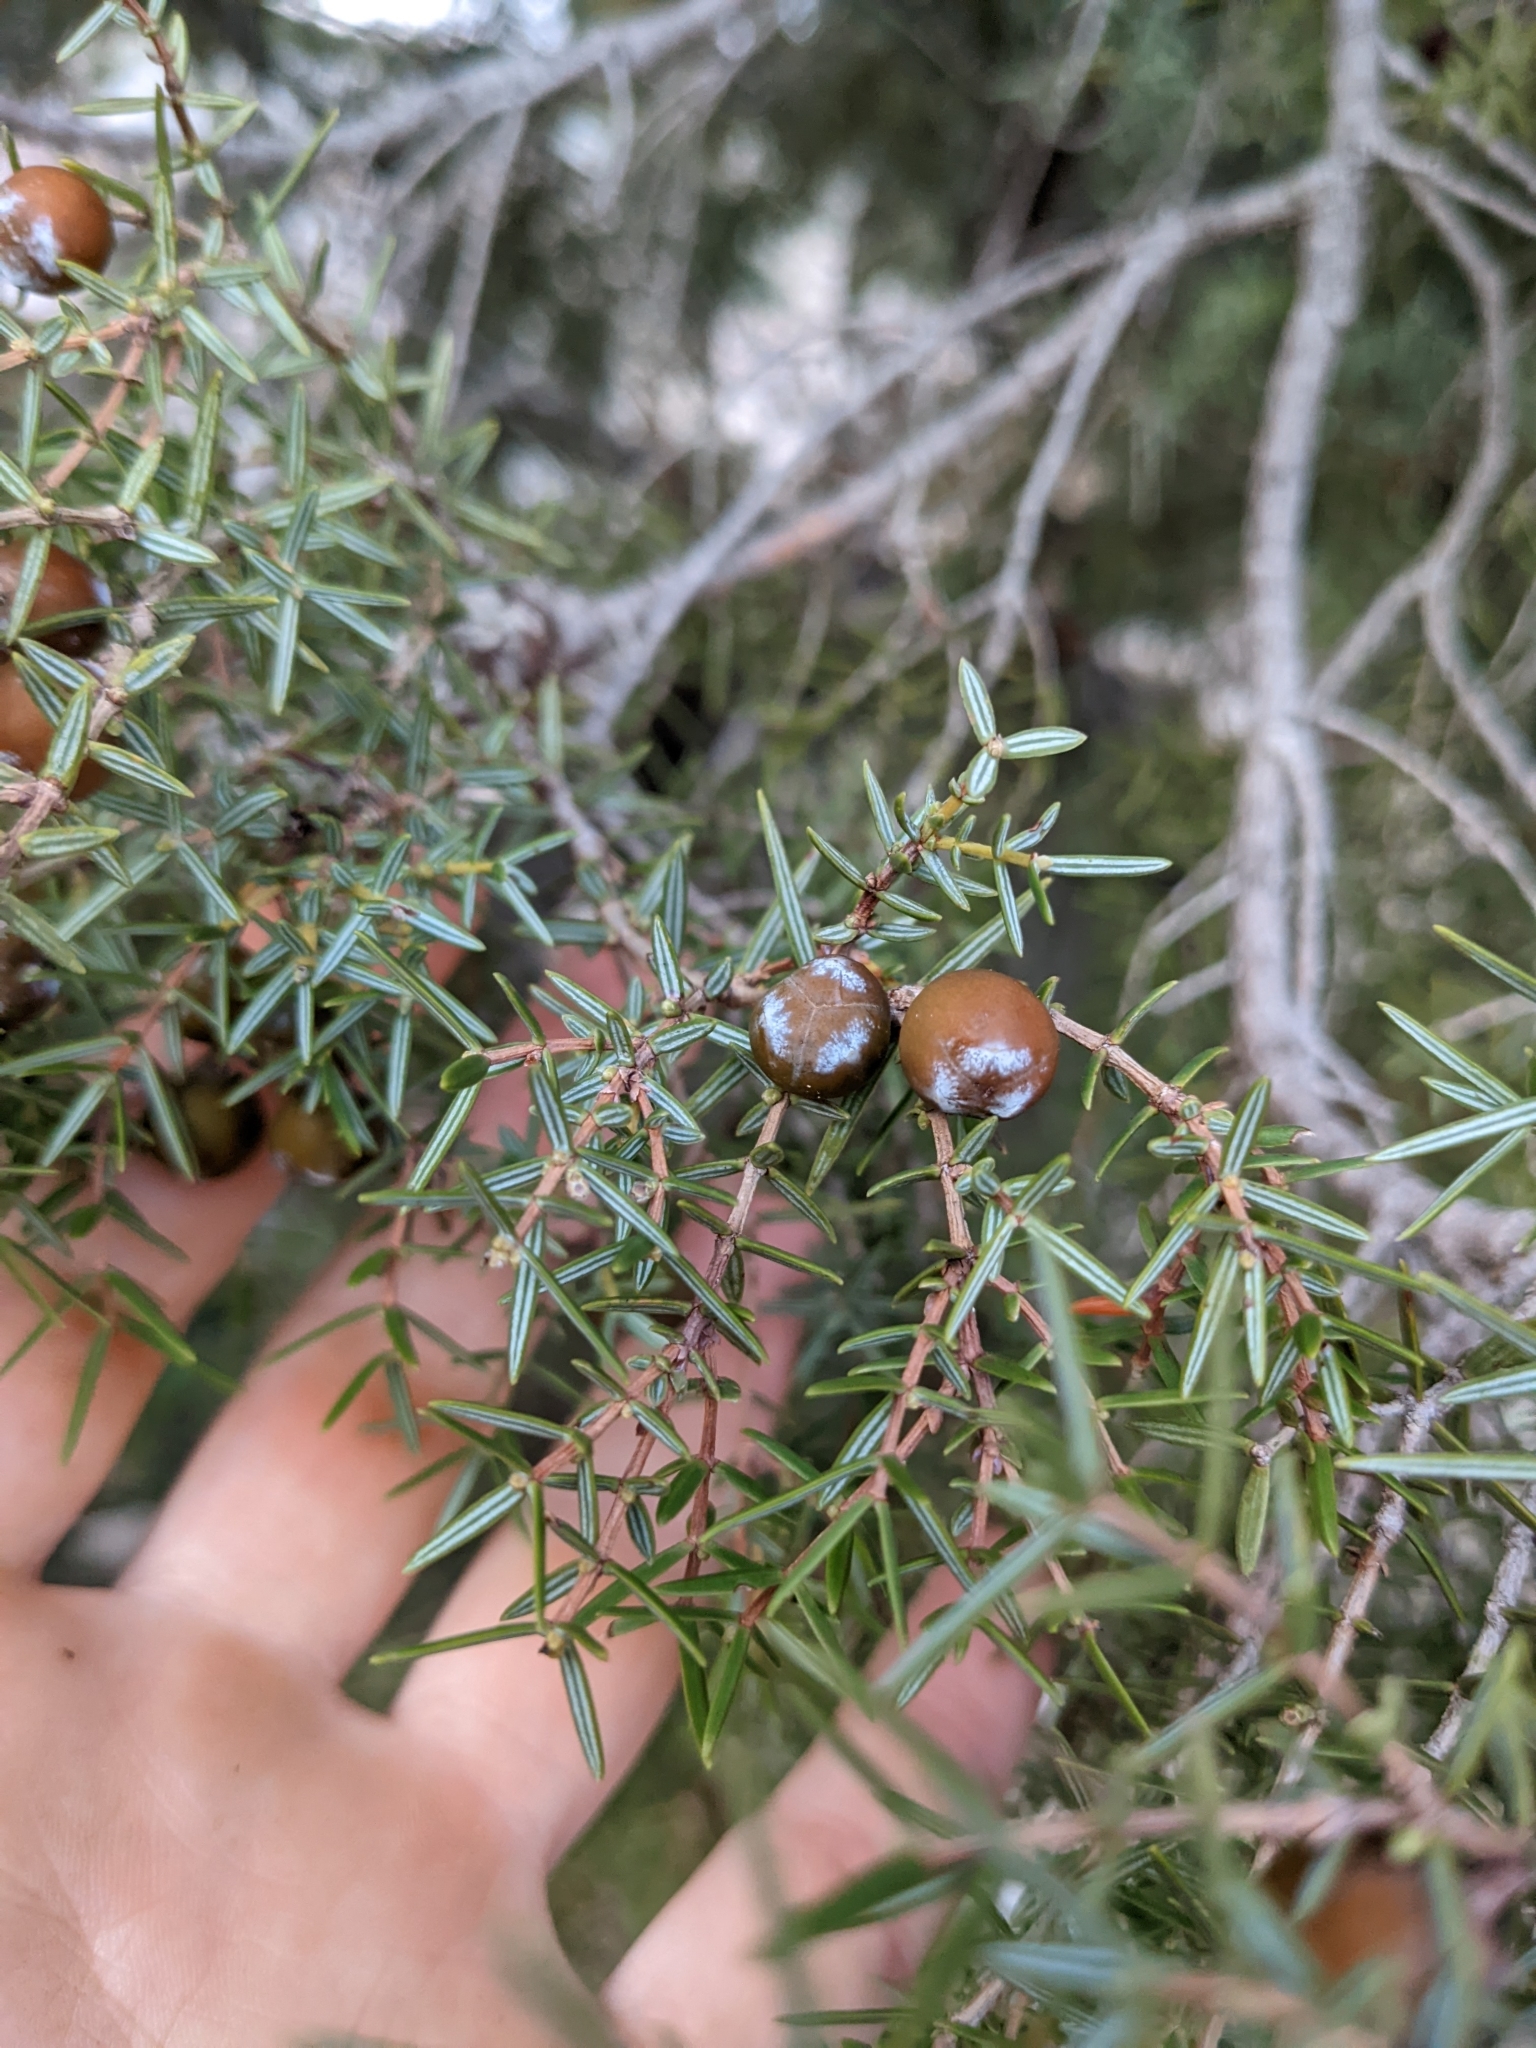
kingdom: Plantae
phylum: Tracheophyta
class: Pinopsida
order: Pinales
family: Cupressaceae
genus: Juniperus
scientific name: Juniperus oxycedrus
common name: Prickly juniper
